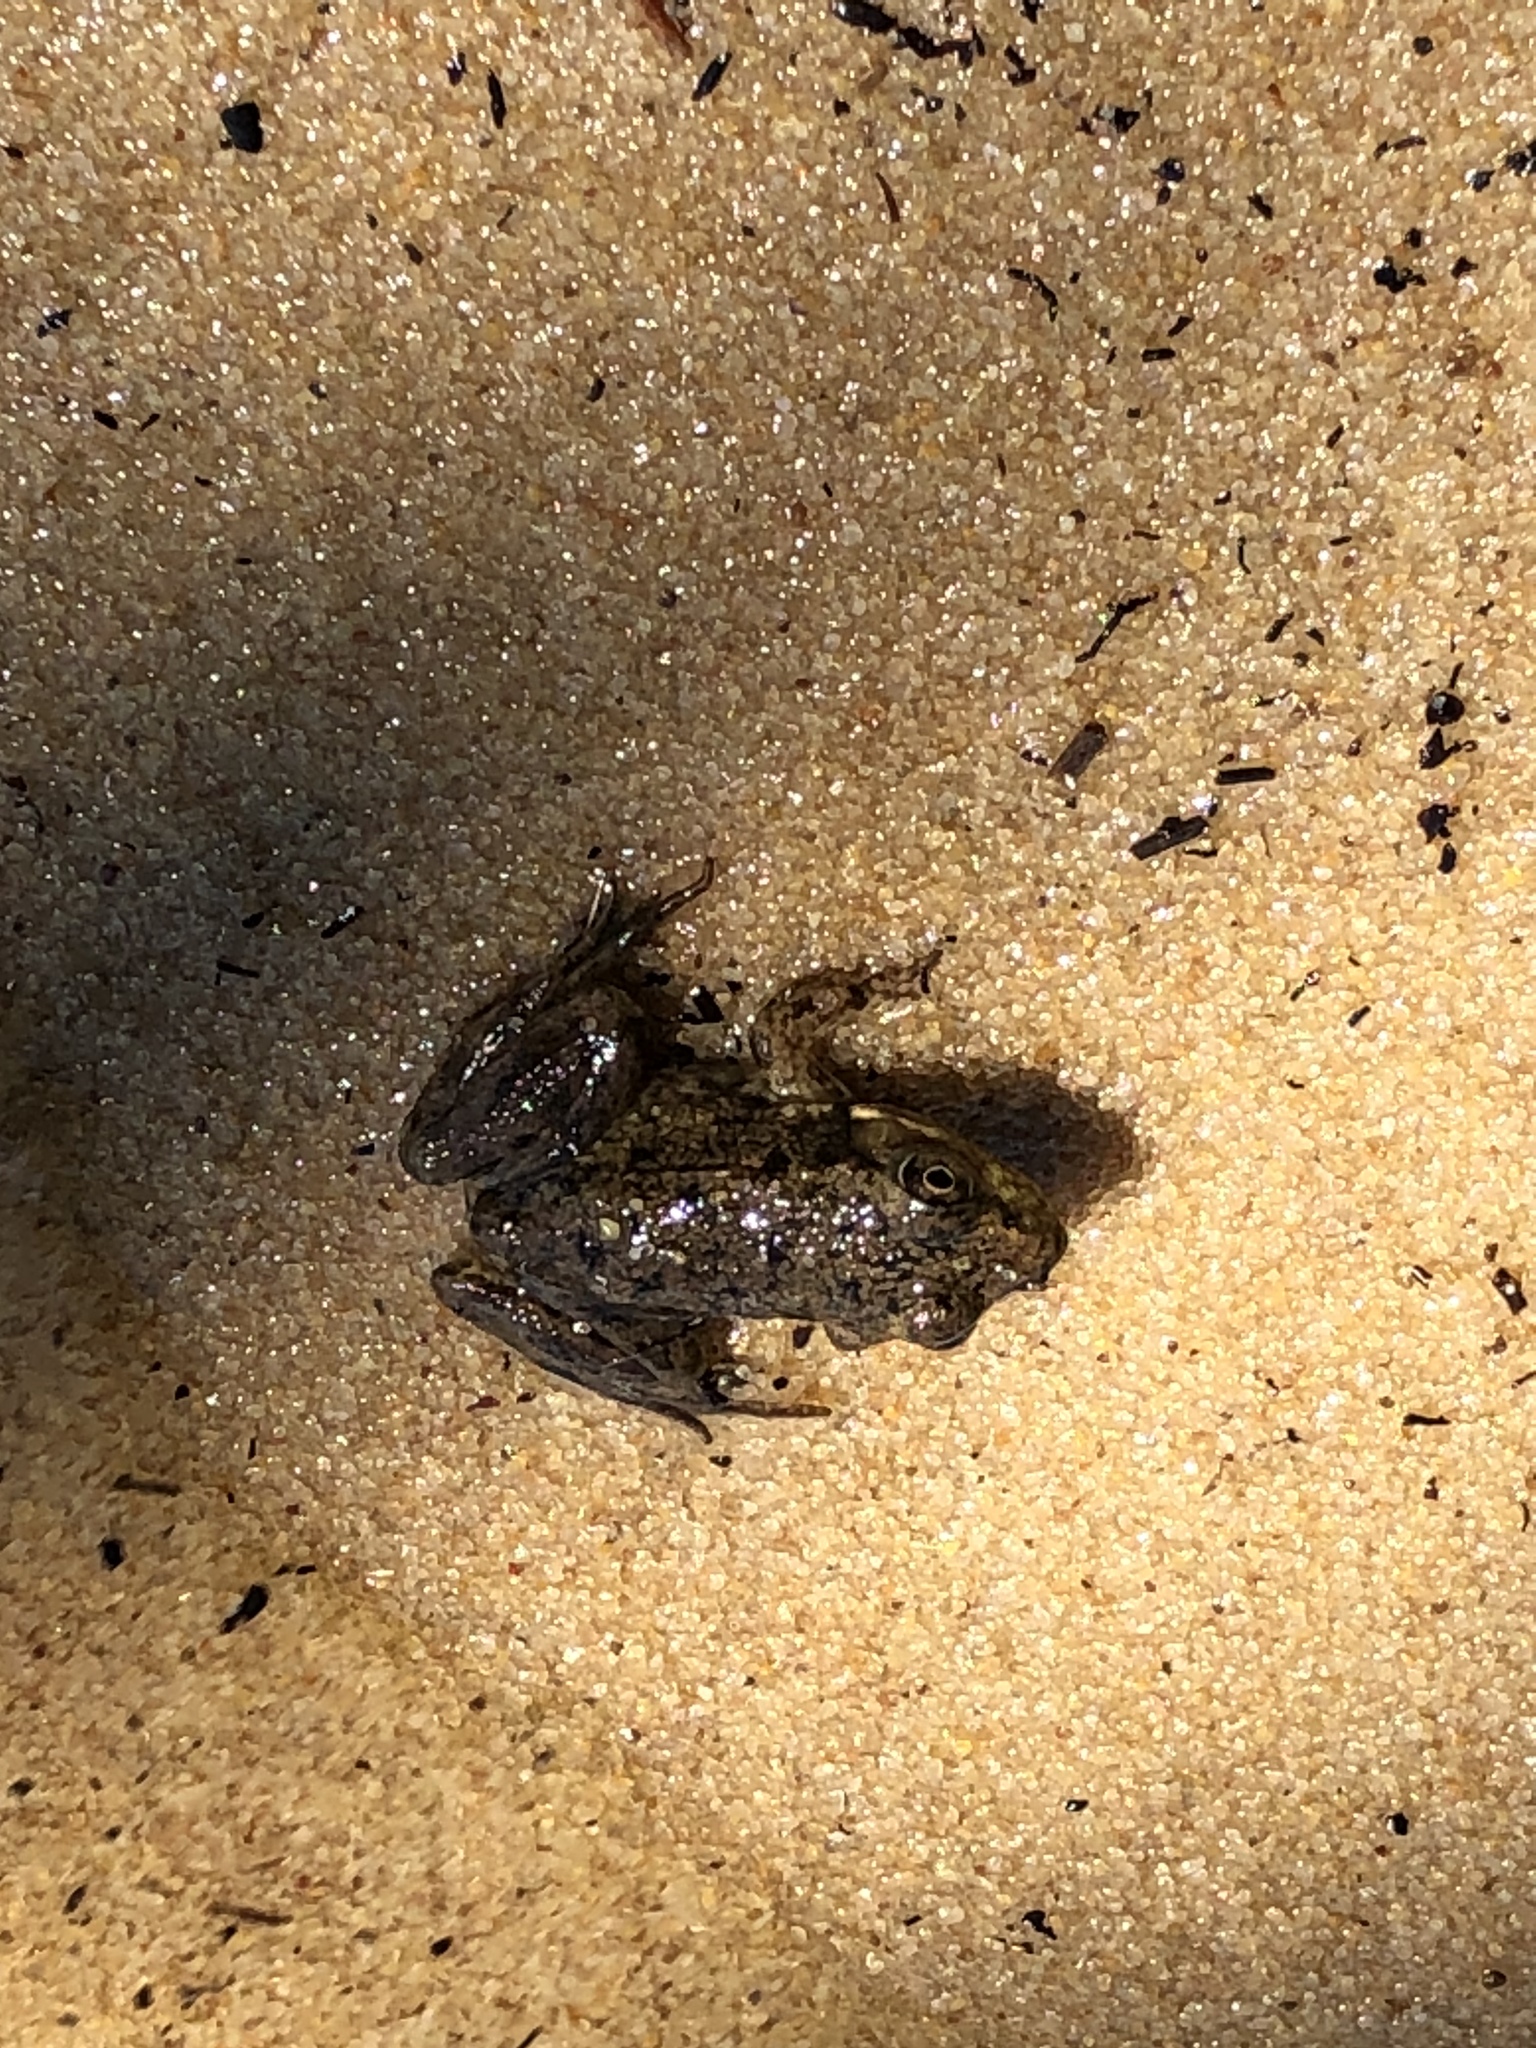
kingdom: Animalia
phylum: Chordata
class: Amphibia
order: Anura
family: Ranidae
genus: Lithobates
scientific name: Lithobates clamitans
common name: Green frog
